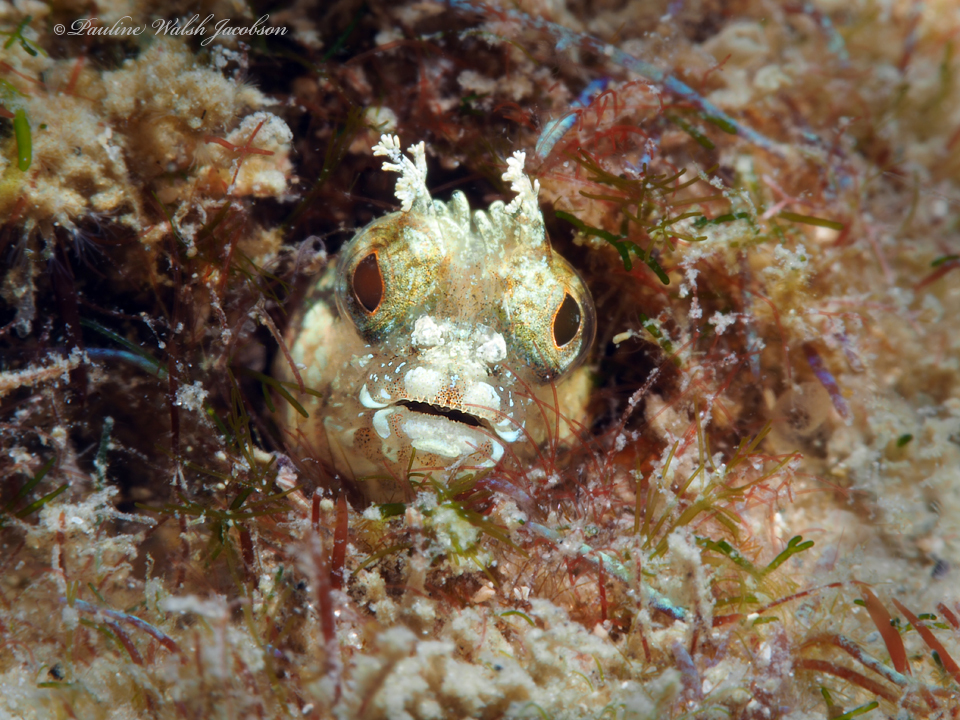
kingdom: Animalia
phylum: Chordata
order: Perciformes
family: Chaenopsidae
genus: Acanthemblemaria
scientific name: Acanthemblemaria chaplini
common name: Papillose blenny
